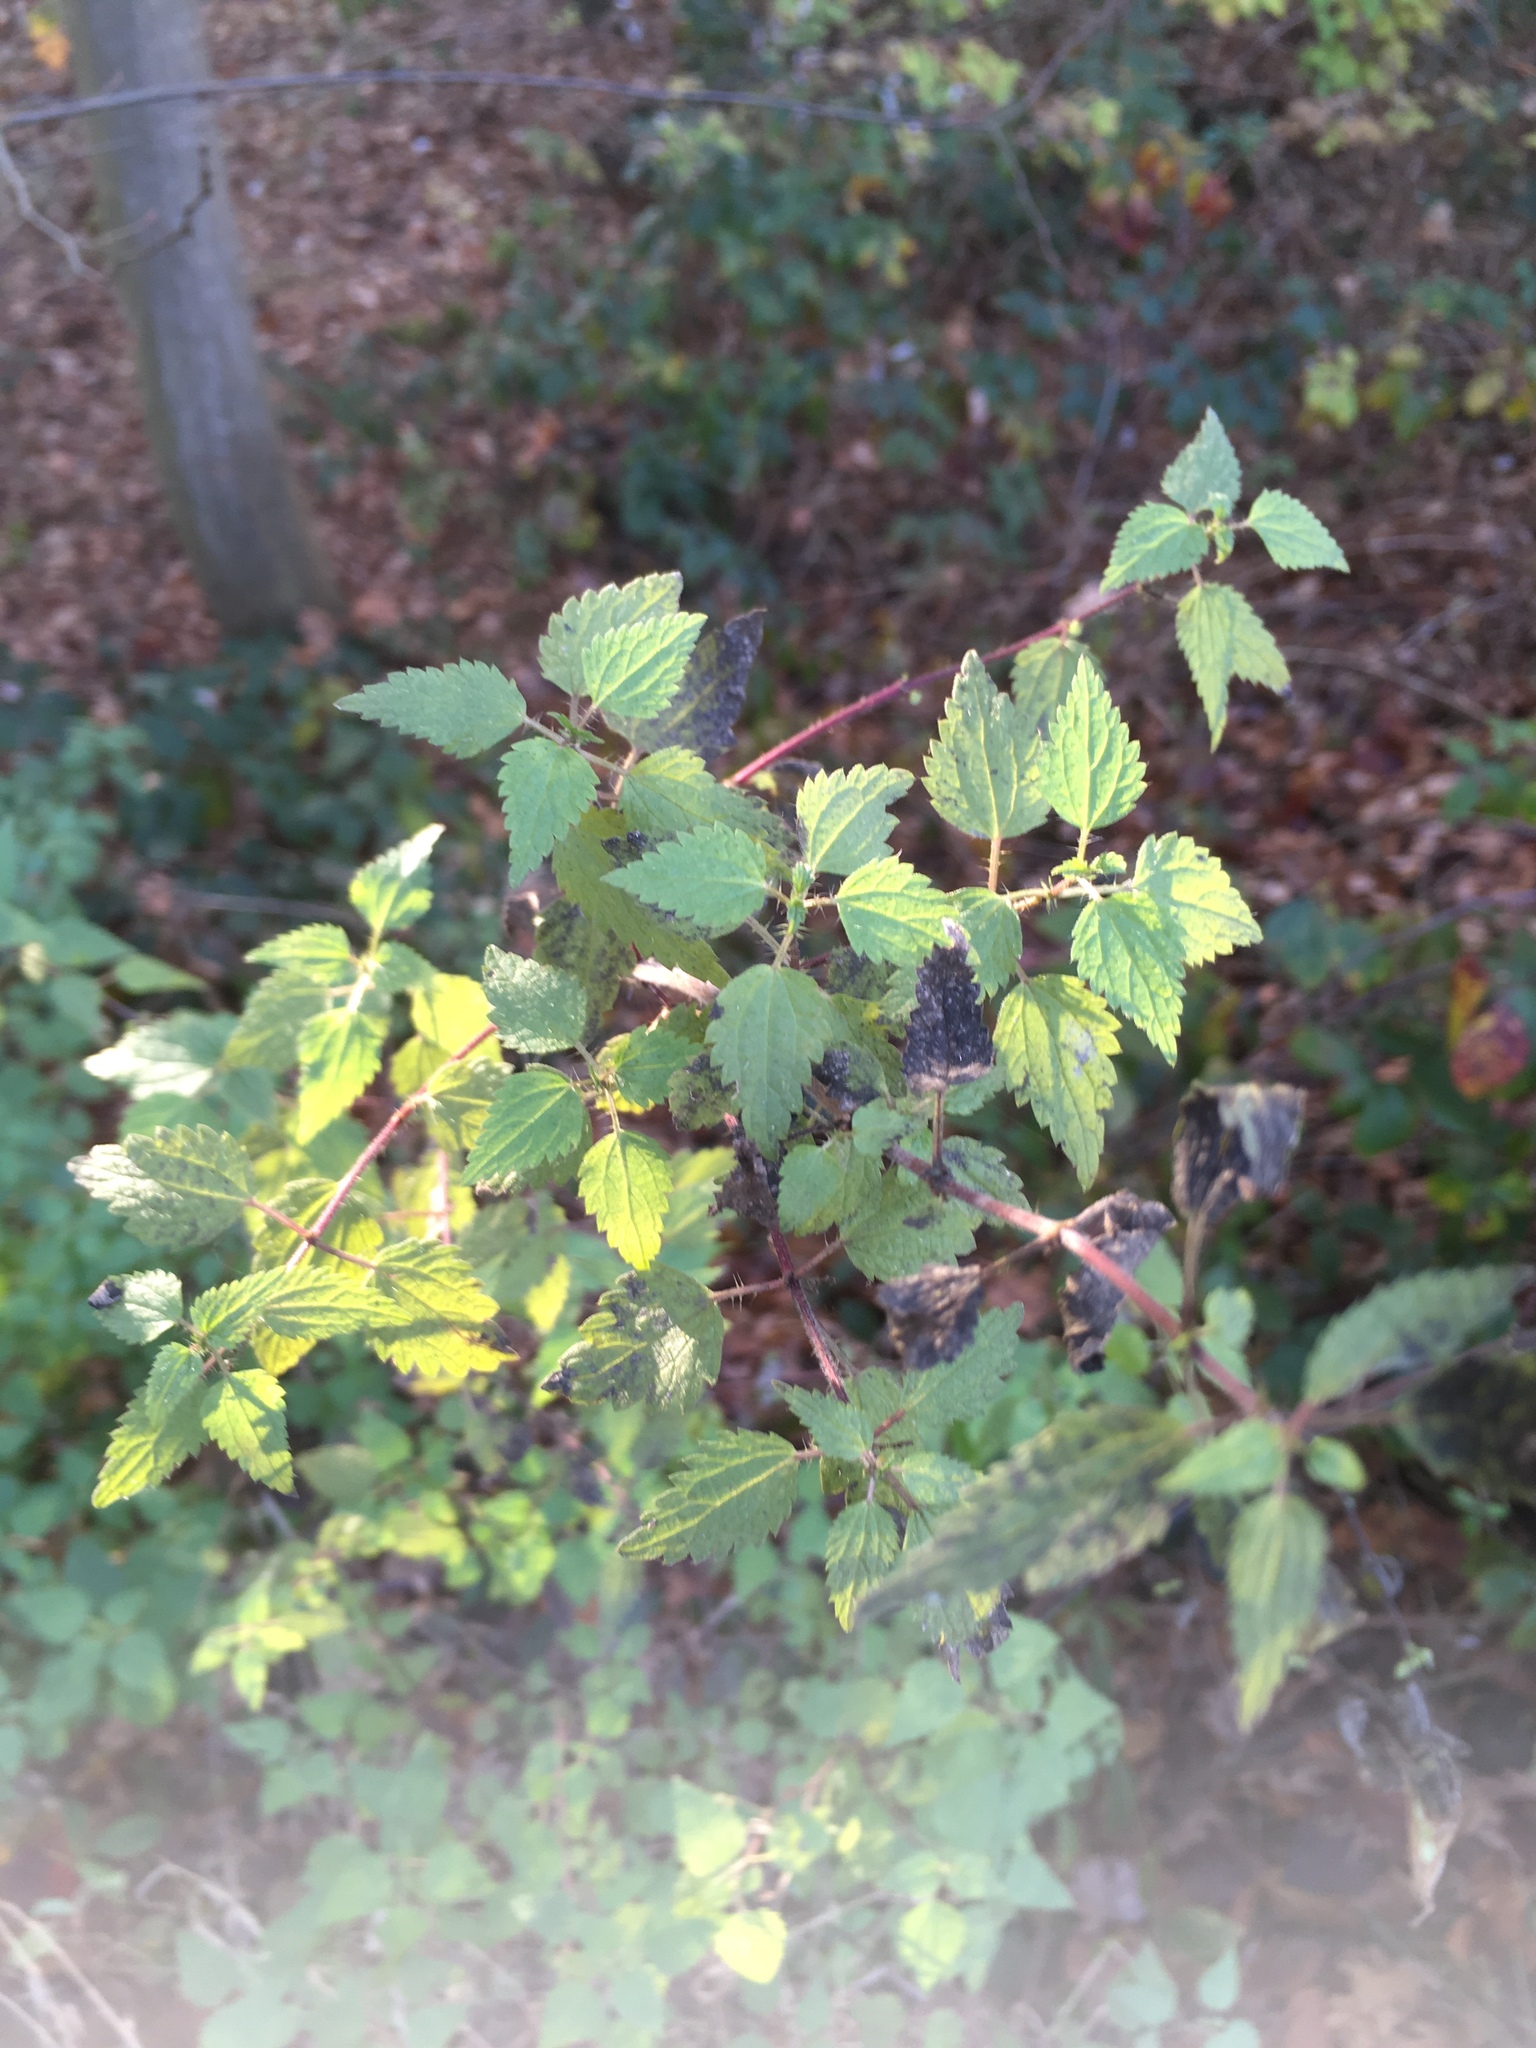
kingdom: Plantae
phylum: Tracheophyta
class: Magnoliopsida
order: Rosales
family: Urticaceae
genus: Urtica
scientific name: Urtica dioica
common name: Common nettle
